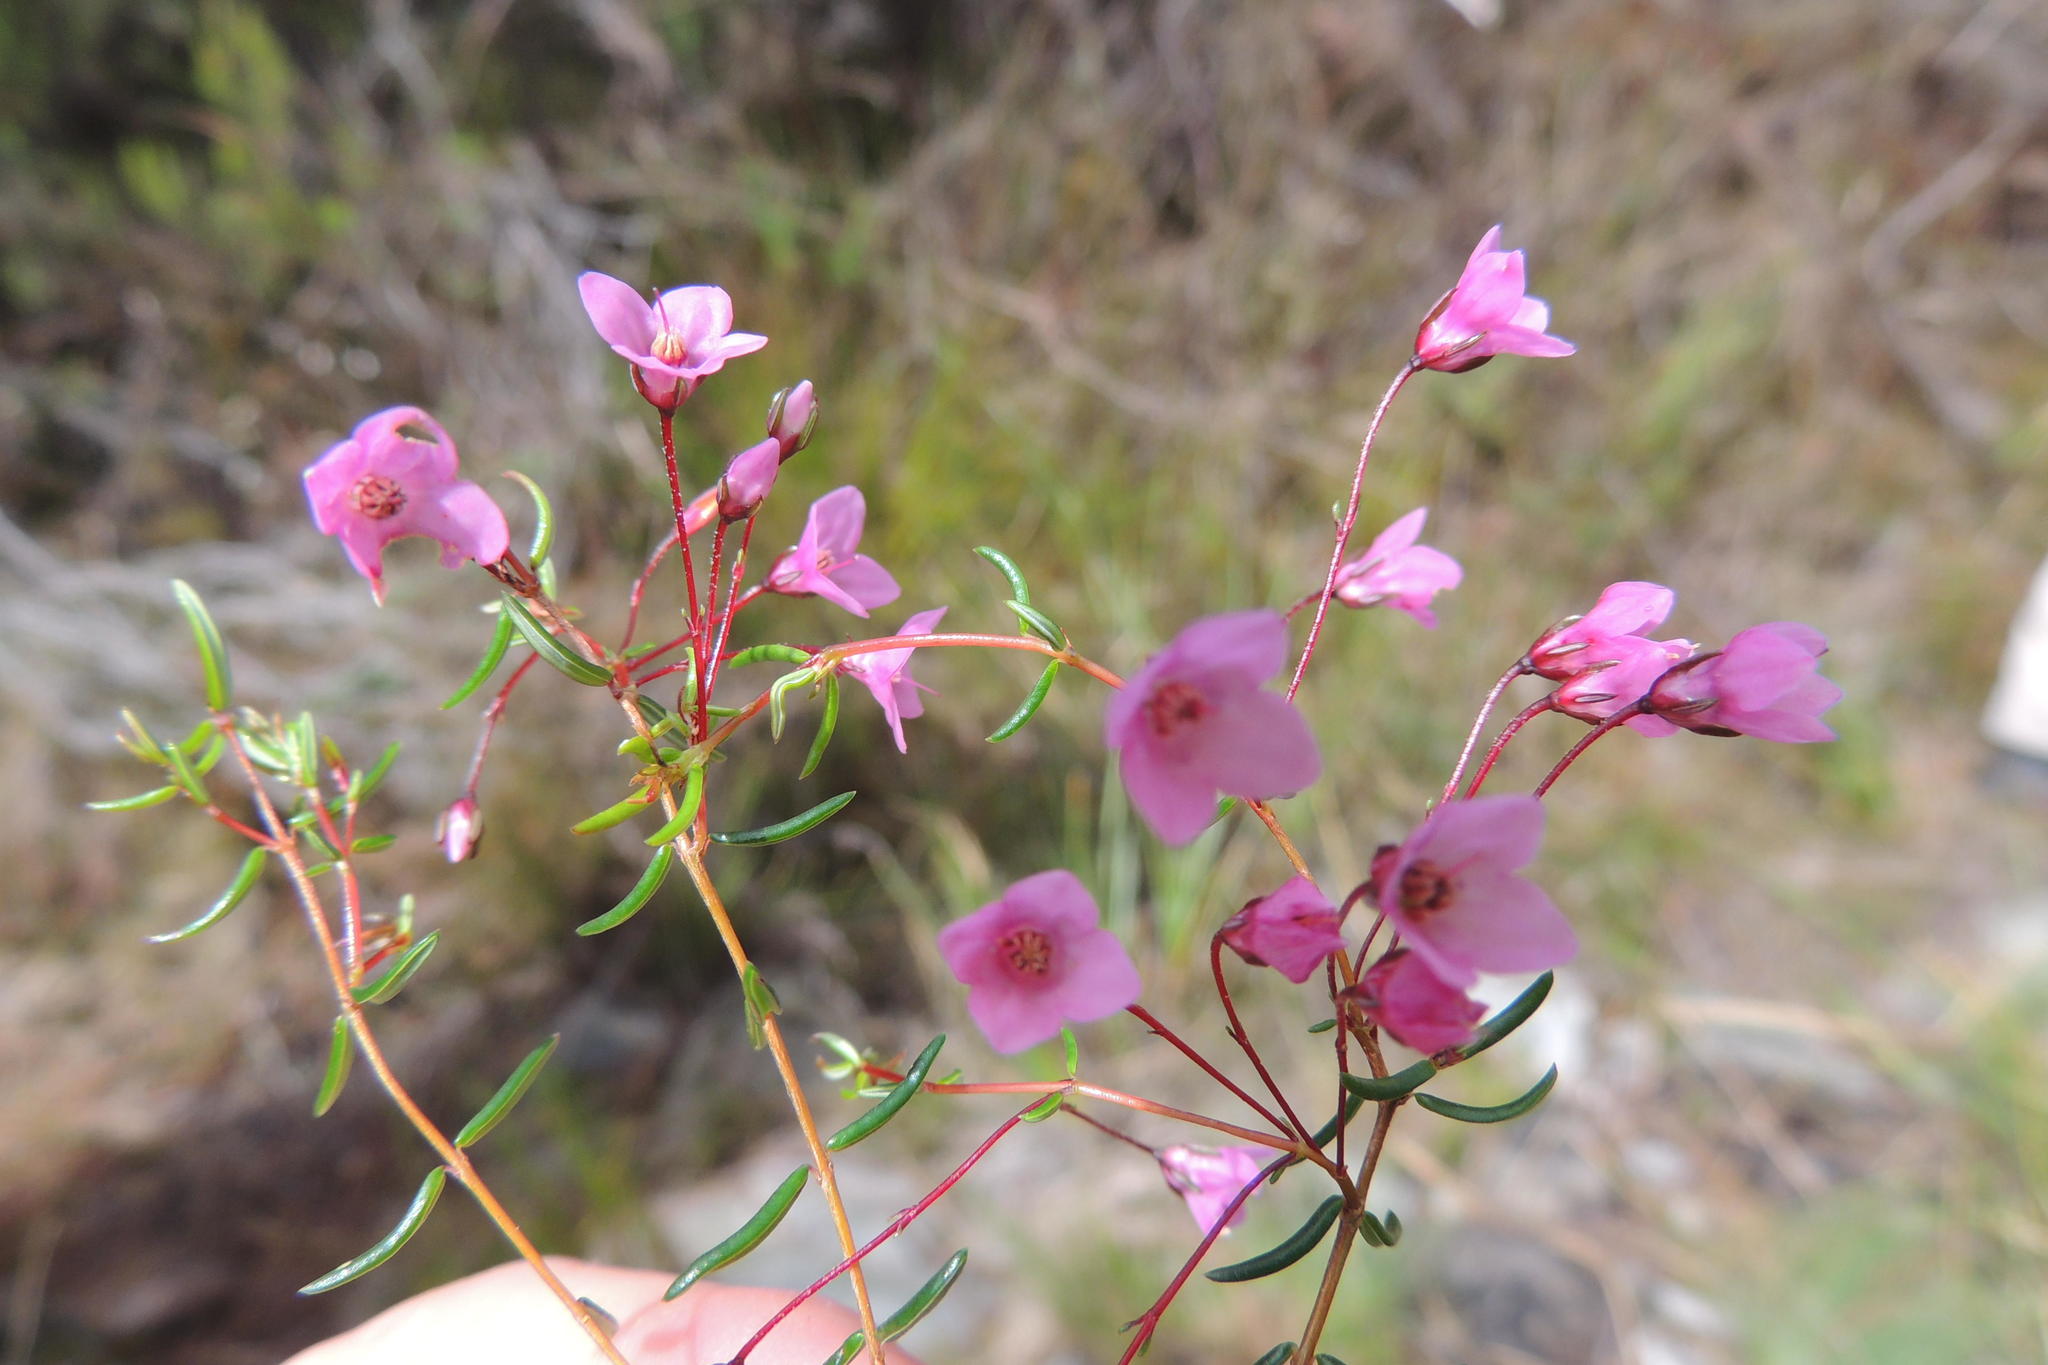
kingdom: Plantae
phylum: Tracheophyta
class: Magnoliopsida
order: Ericales
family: Ericaceae
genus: Erica
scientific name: Erica tetrathecoides
